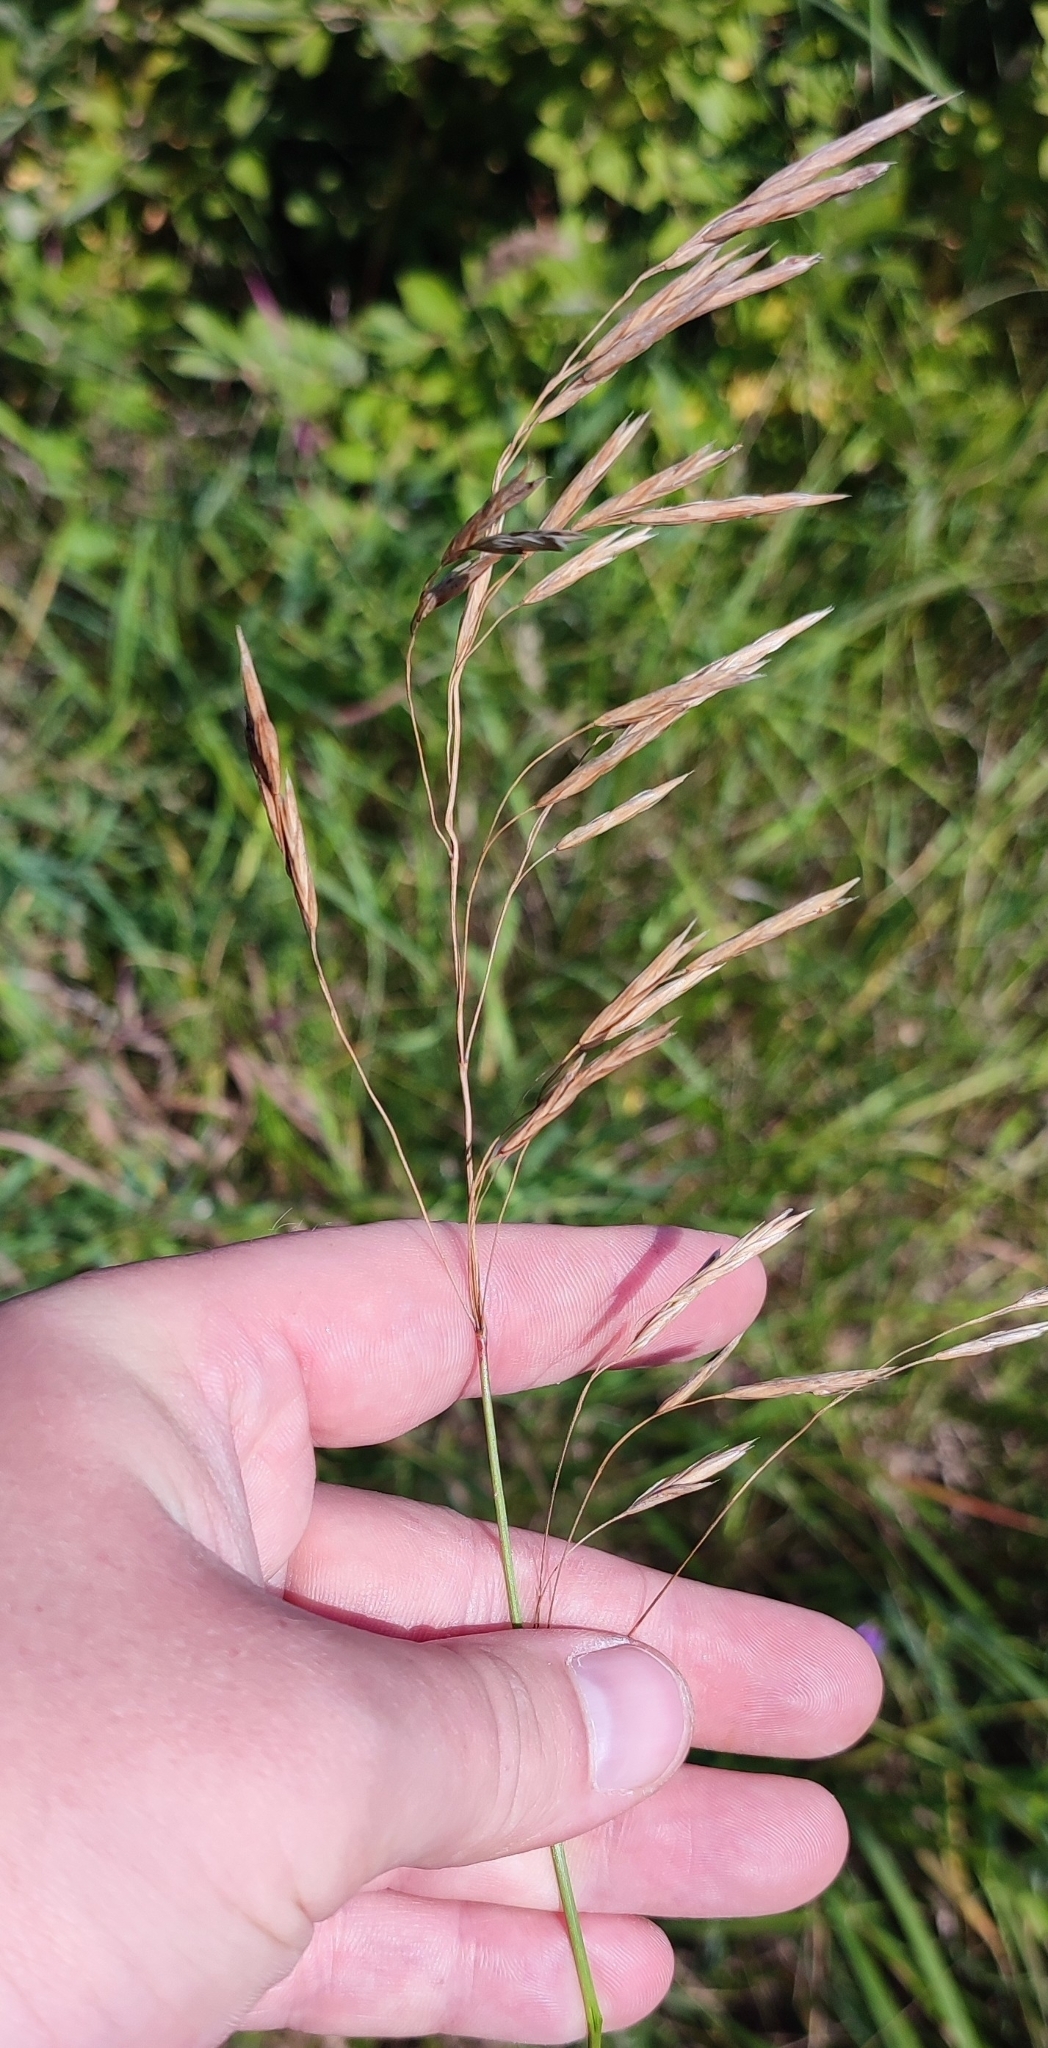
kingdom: Plantae
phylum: Tracheophyta
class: Liliopsida
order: Poales
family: Poaceae
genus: Bromus
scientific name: Bromus inermis
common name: Smooth brome
